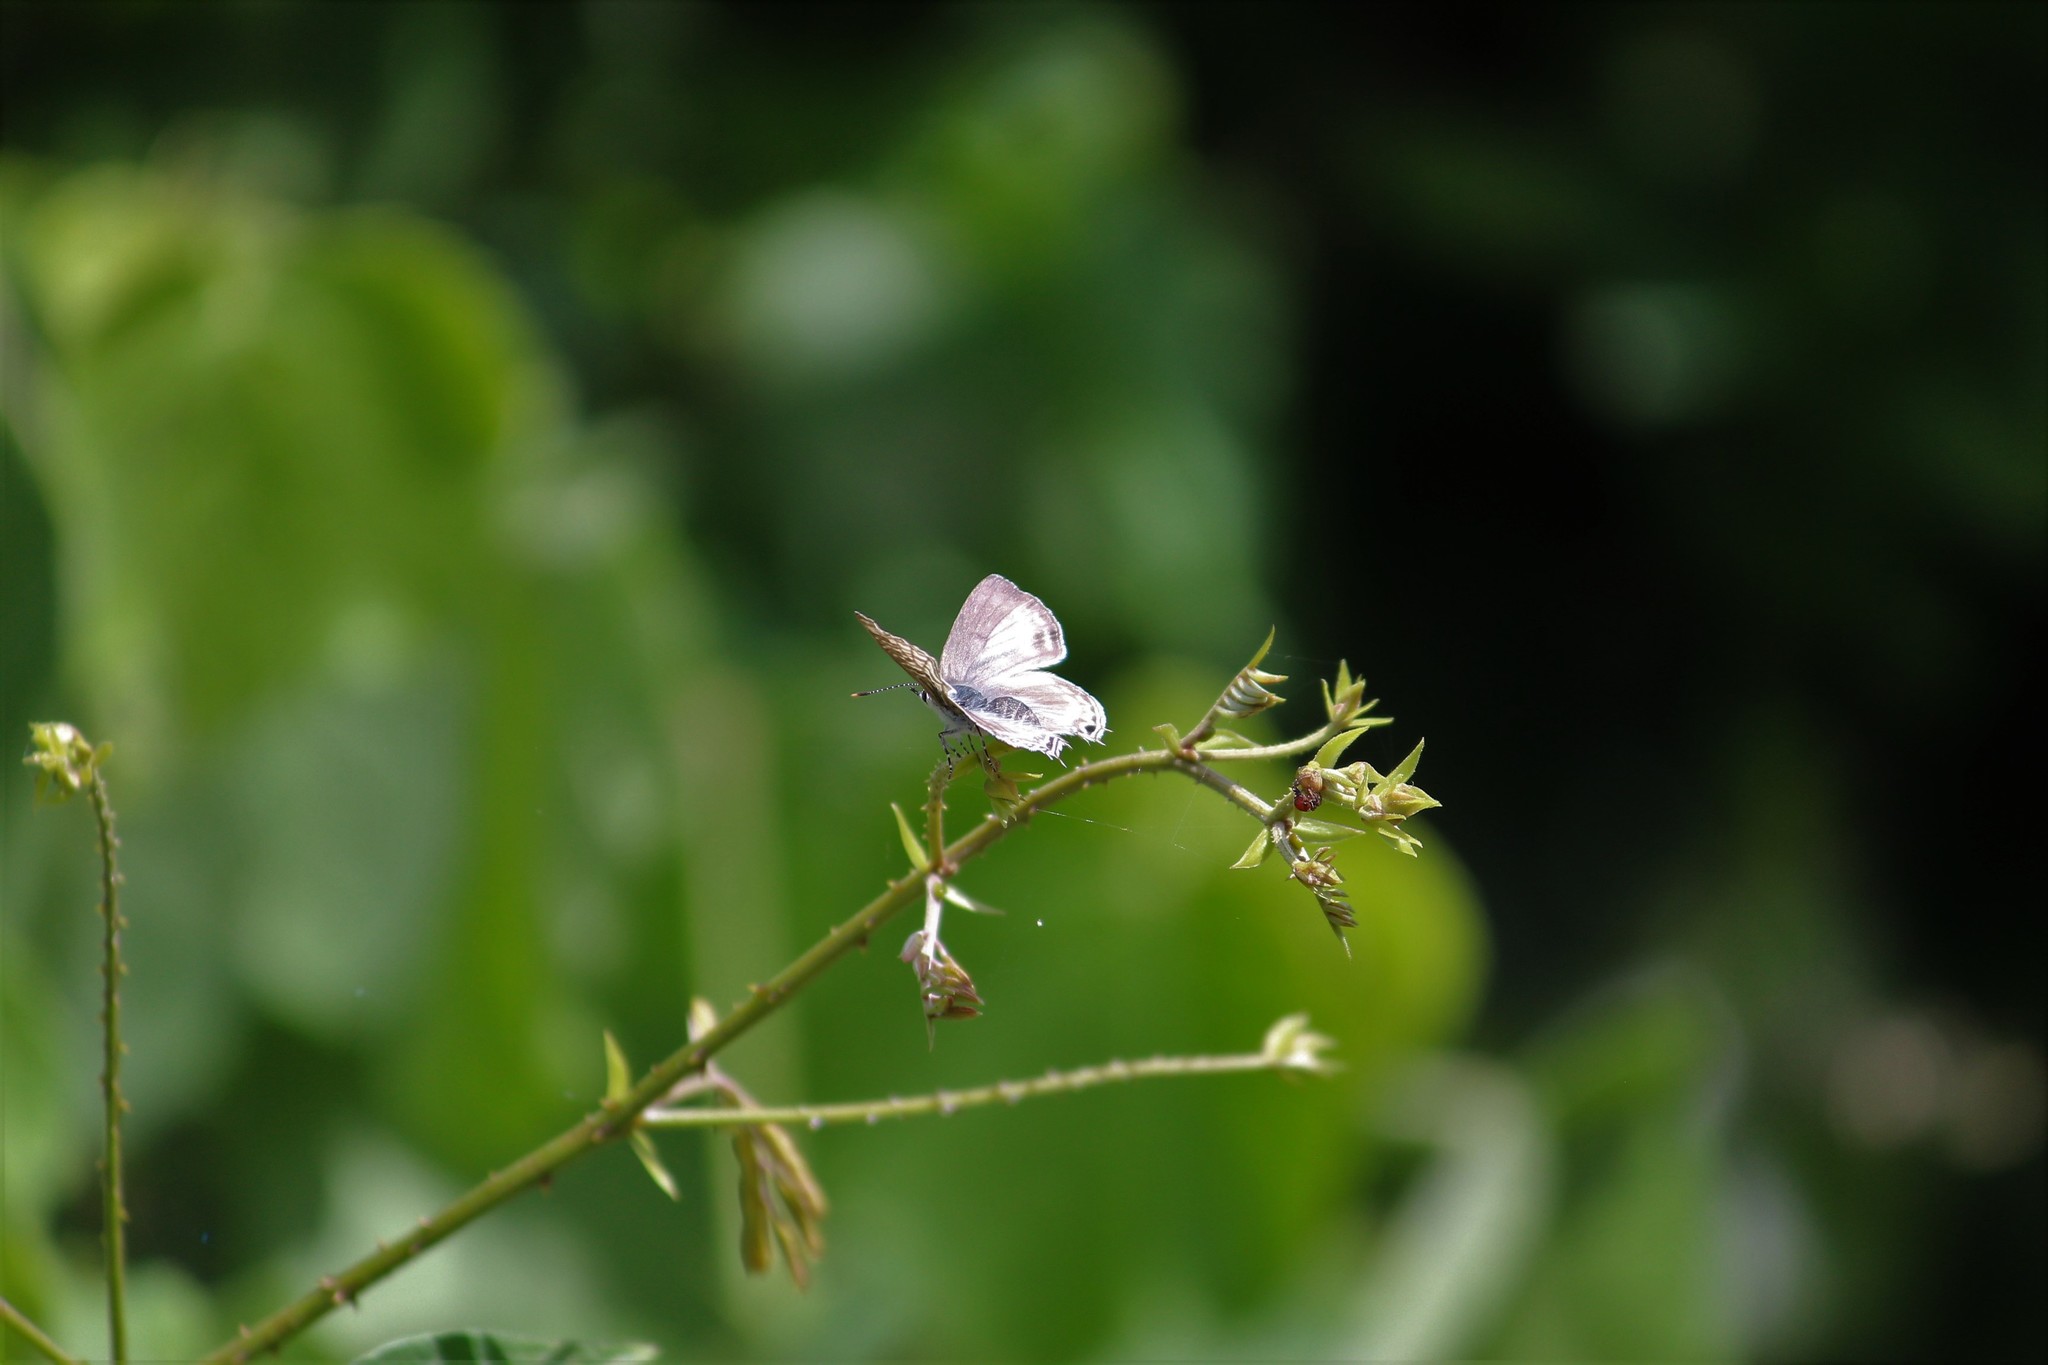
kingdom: Animalia
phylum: Arthropoda
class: Insecta
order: Lepidoptera
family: Lycaenidae
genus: Anthene
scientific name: Anthene larydas
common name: Forest hairtail
